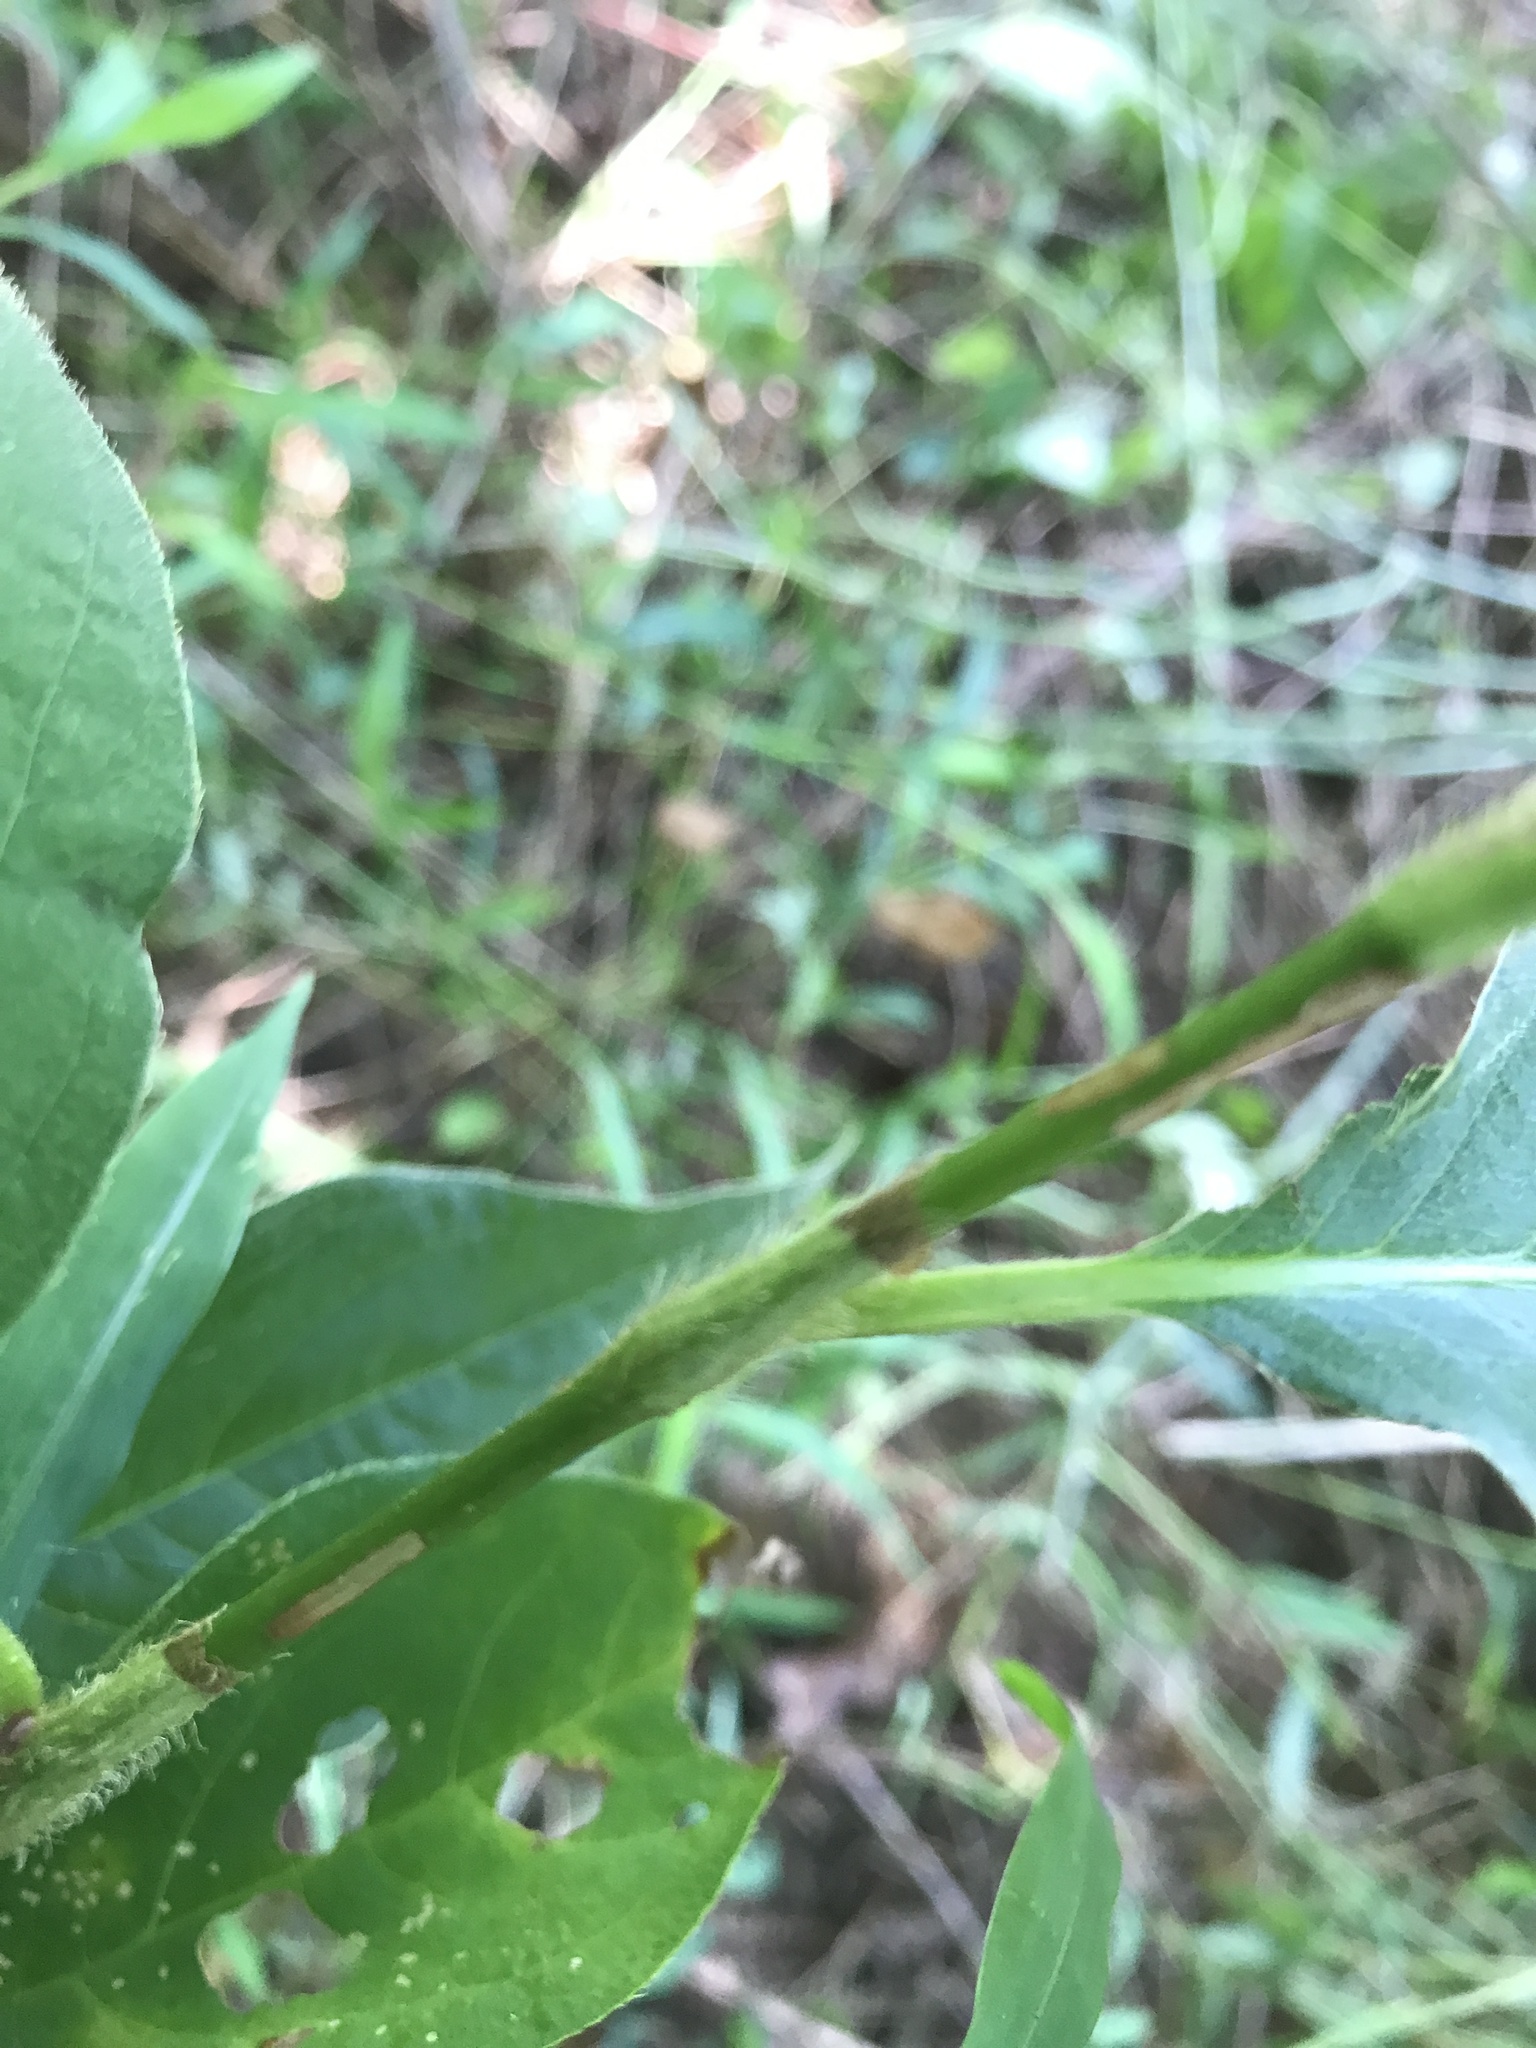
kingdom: Plantae
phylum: Tracheophyta
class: Magnoliopsida
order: Caryophyllales
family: Polygonaceae
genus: Persicaria
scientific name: Persicaria virginiana
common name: Jumpseed
